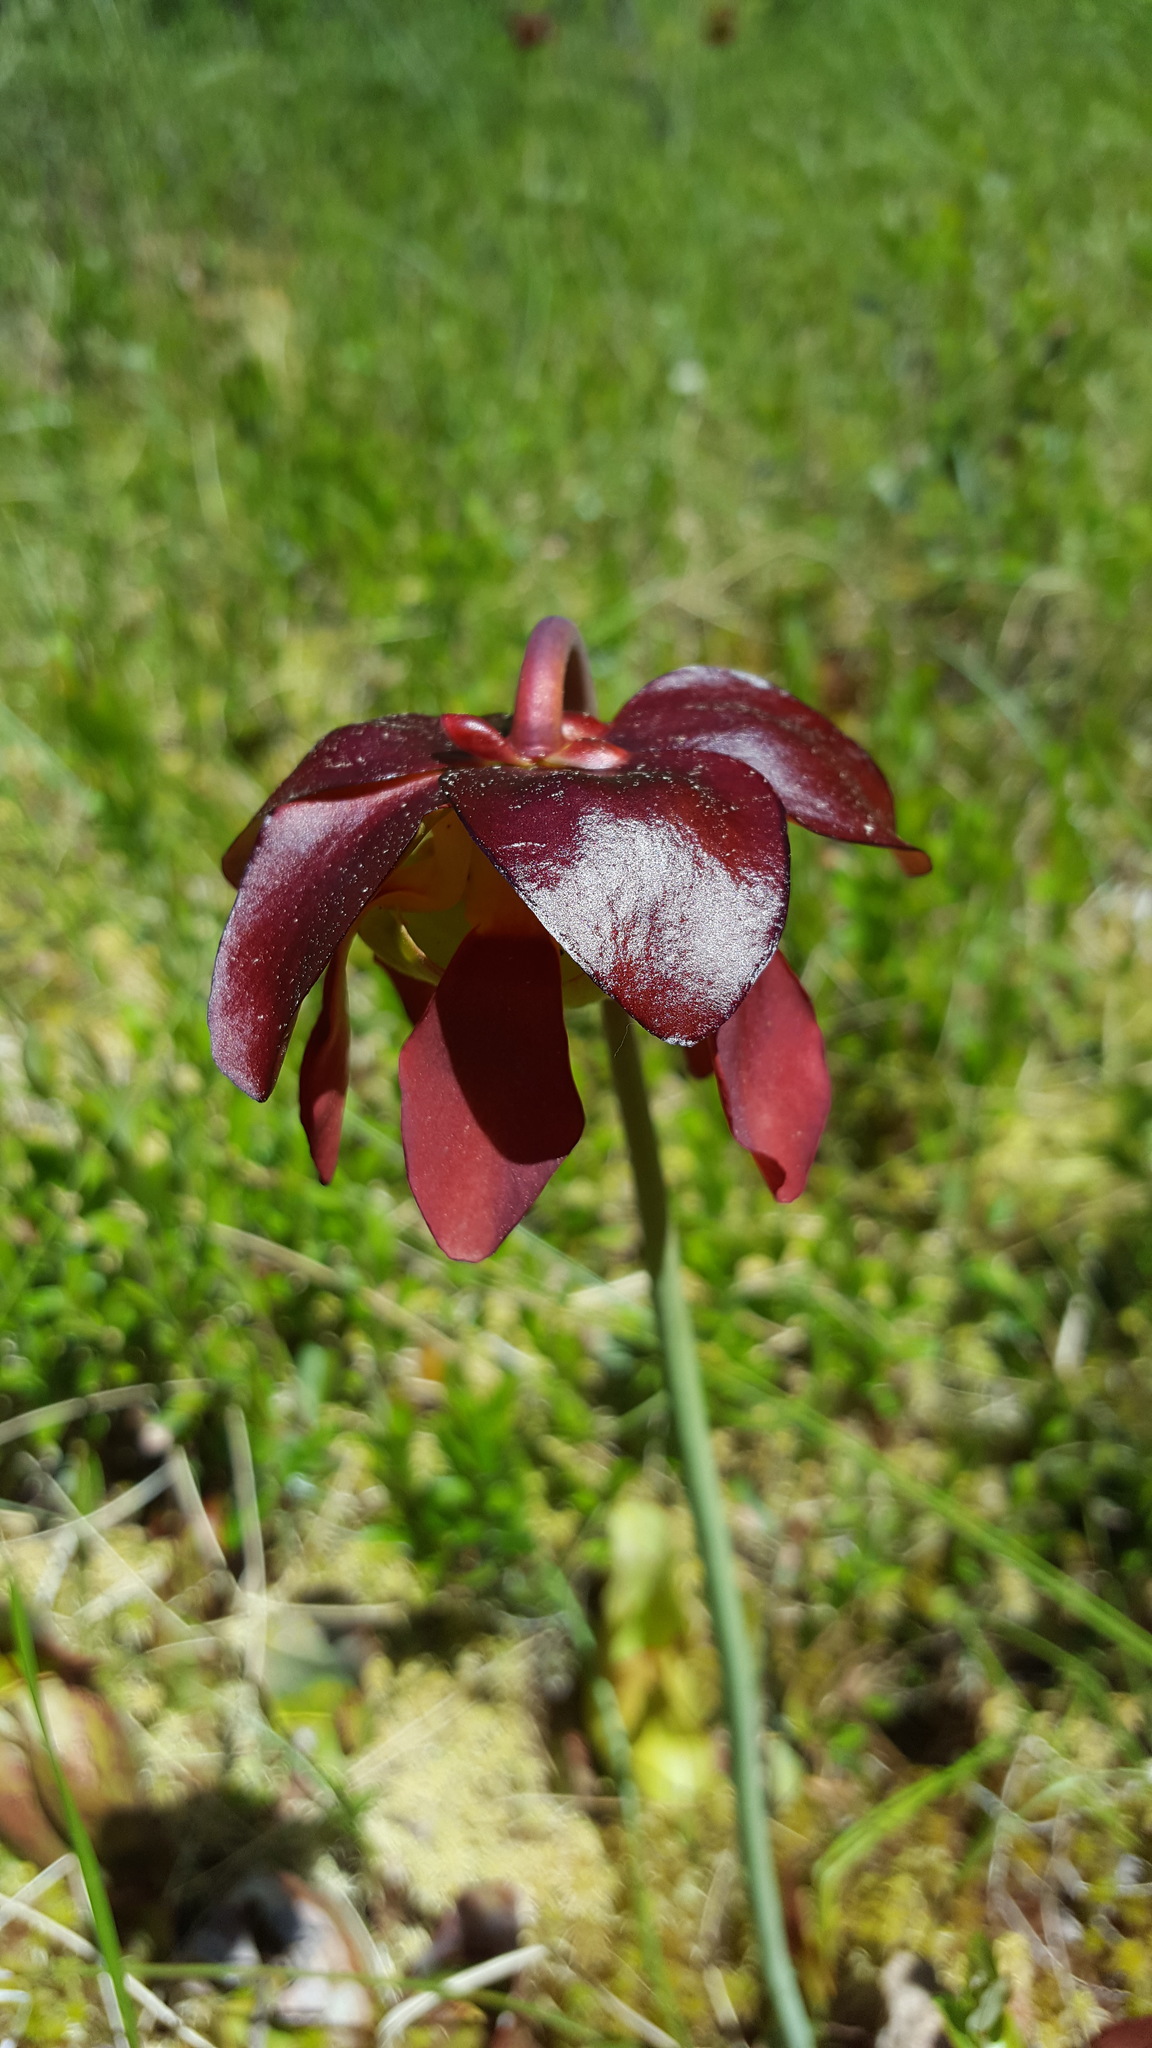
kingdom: Plantae
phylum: Tracheophyta
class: Magnoliopsida
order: Ericales
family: Sarraceniaceae
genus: Sarracenia
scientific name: Sarracenia purpurea
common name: Pitcherplant
